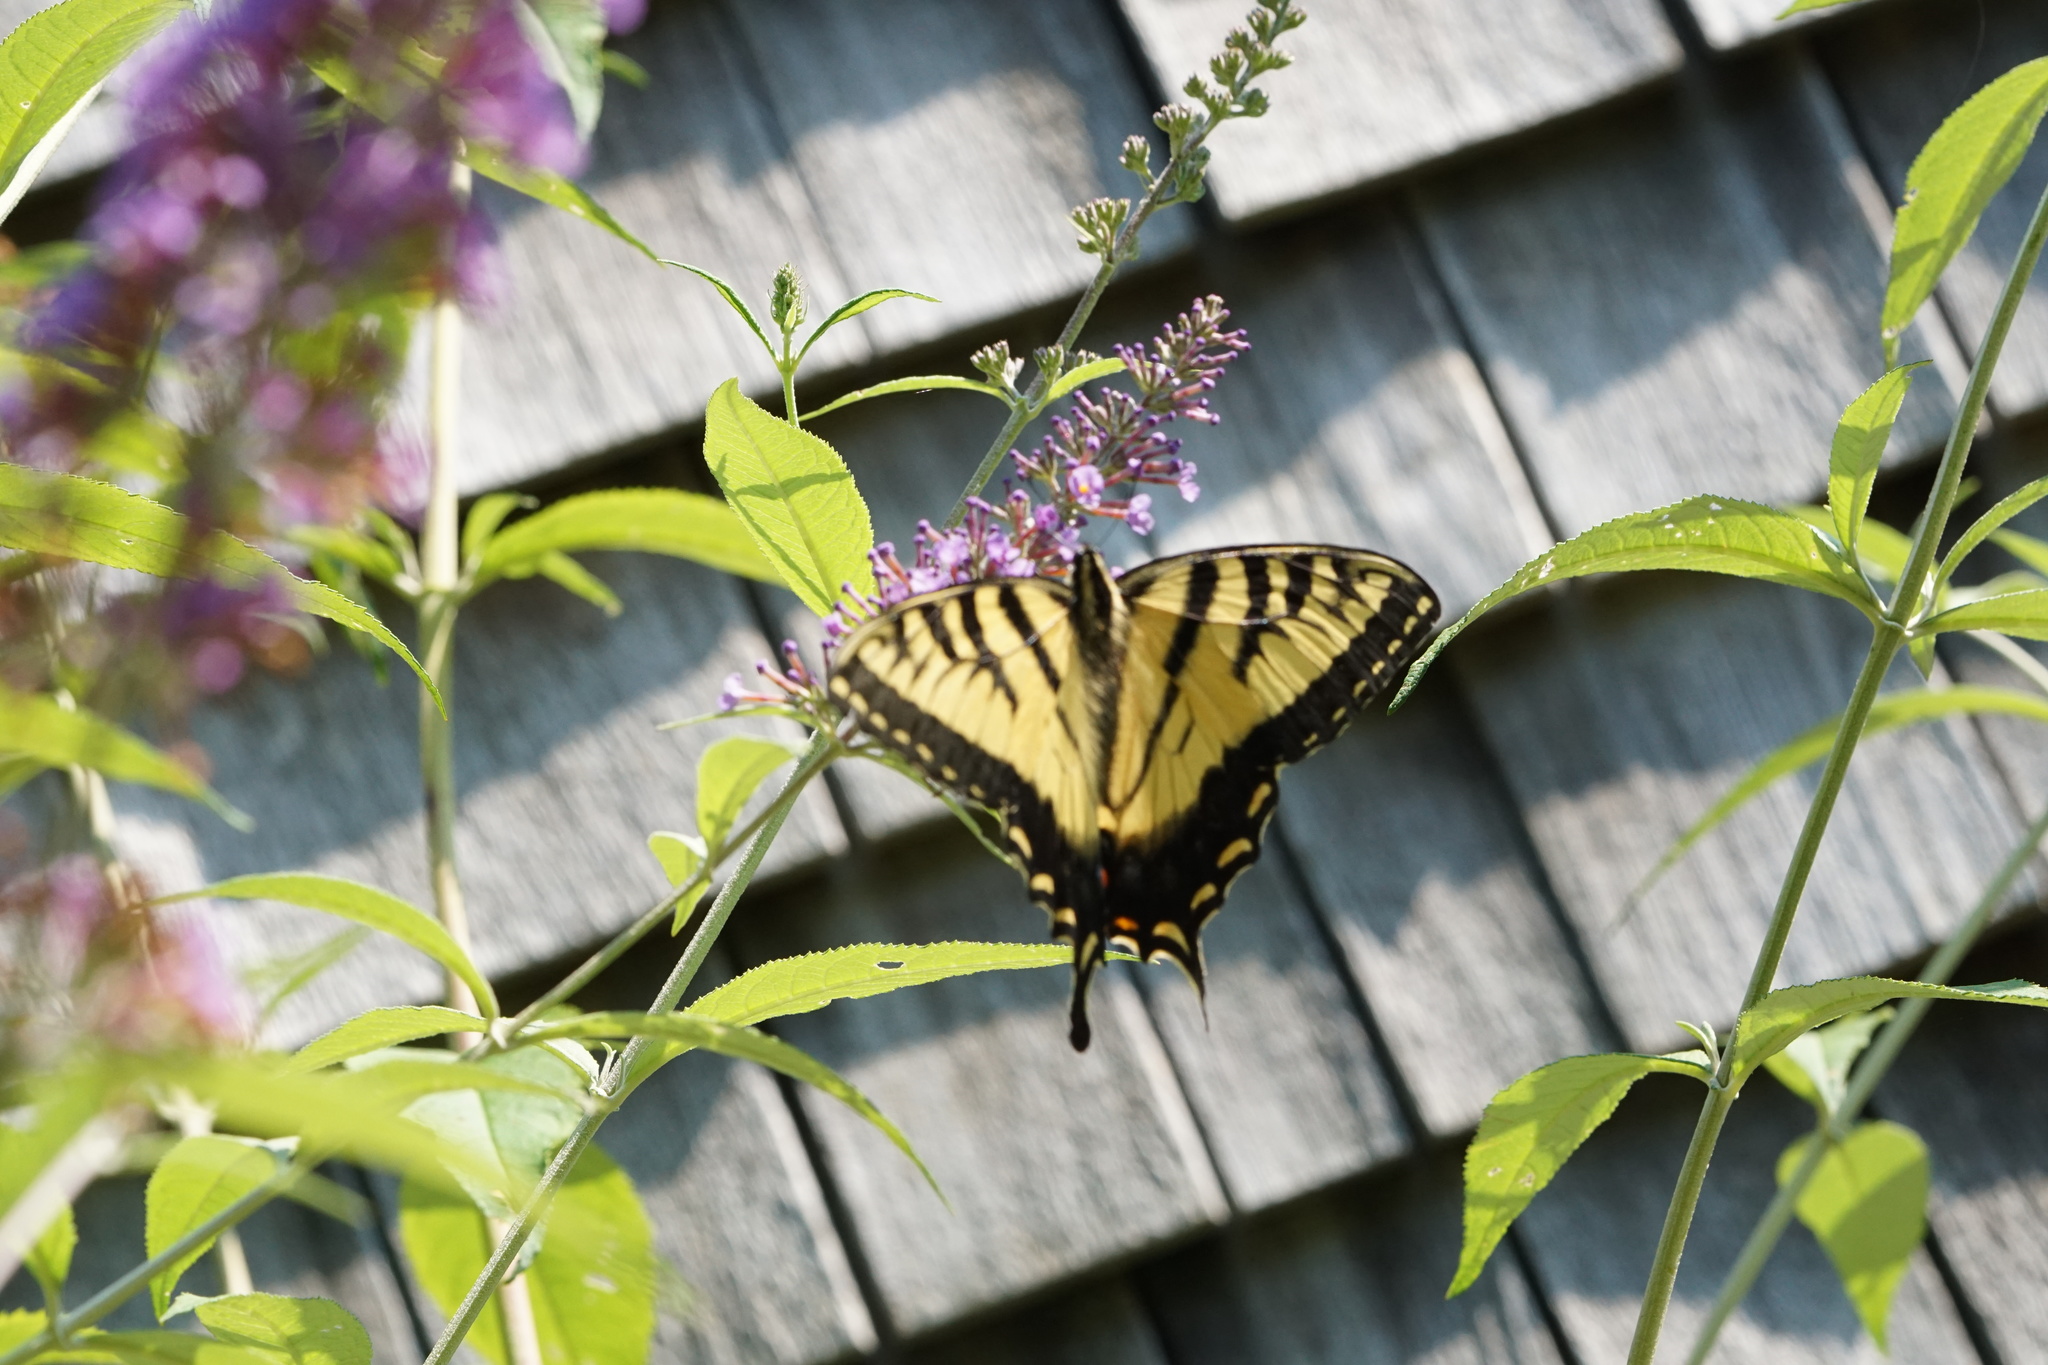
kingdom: Animalia
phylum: Arthropoda
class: Insecta
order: Lepidoptera
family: Papilionidae
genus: Papilio
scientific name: Papilio glaucus
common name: Tiger swallowtail
